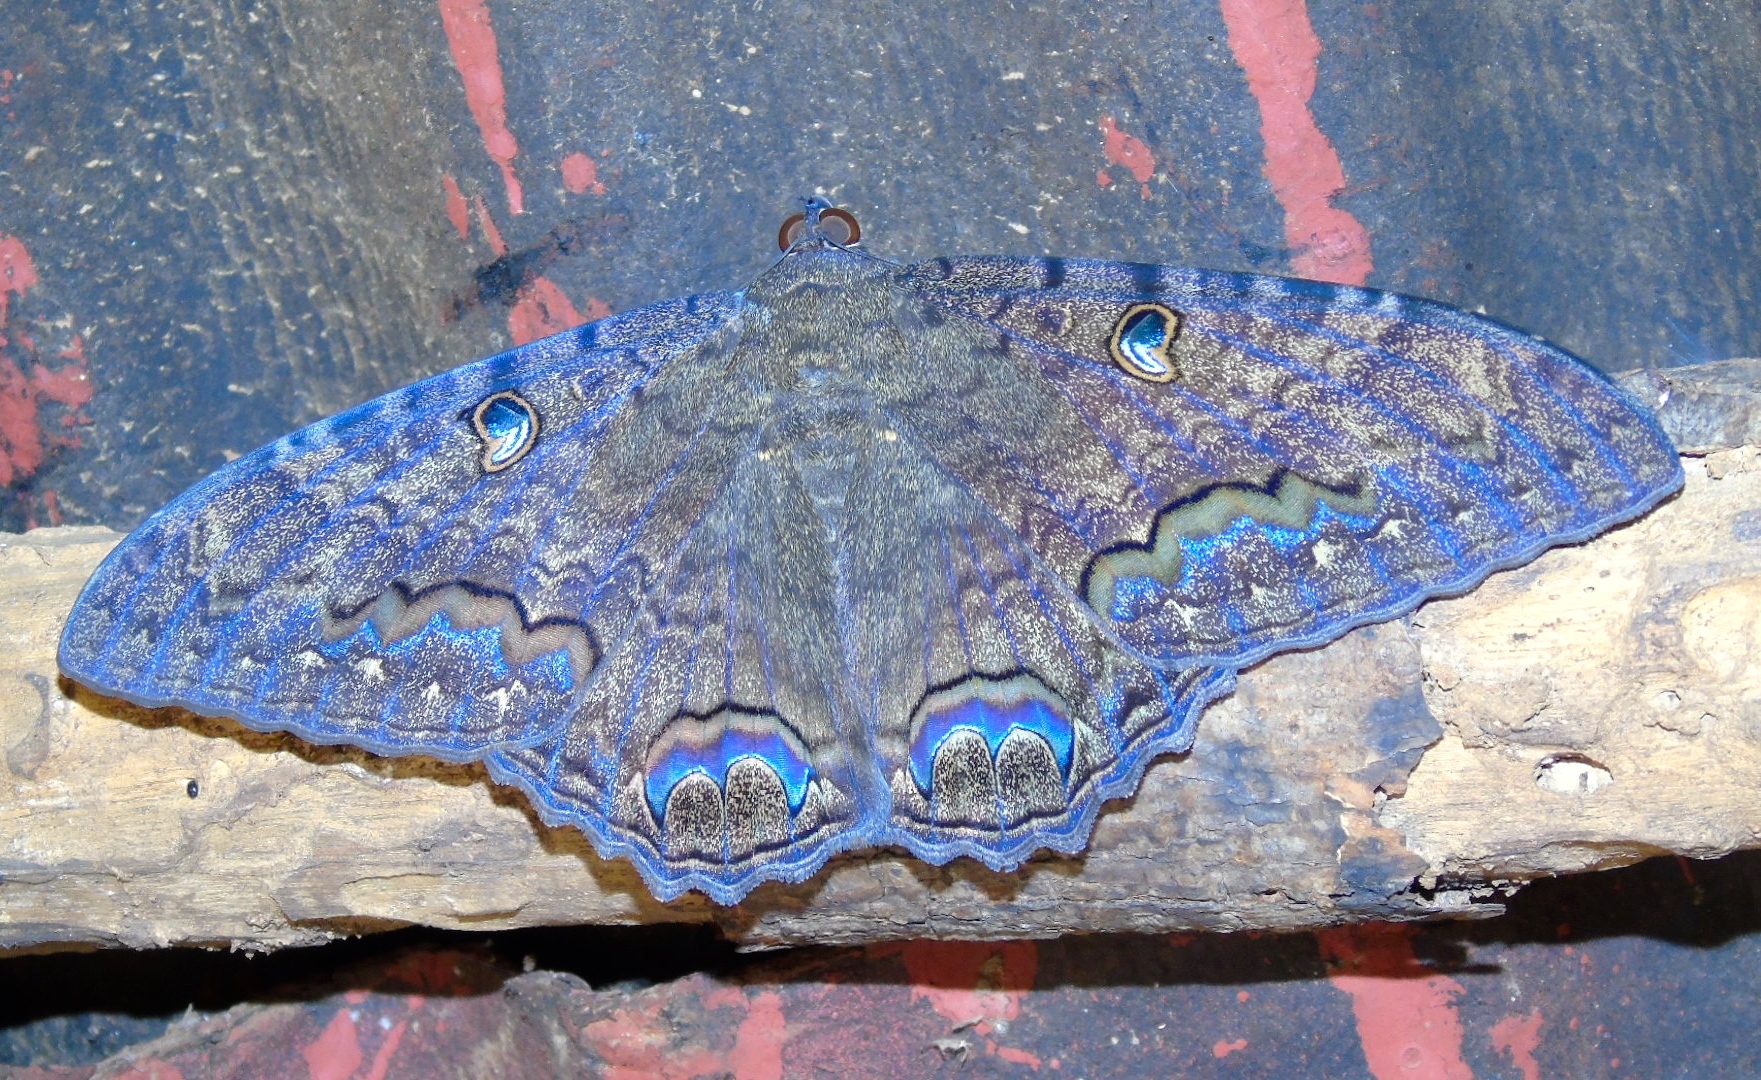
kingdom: Animalia
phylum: Arthropoda
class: Insecta
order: Lepidoptera
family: Erebidae
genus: Ascalapha
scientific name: Ascalapha odorata
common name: Black witch
